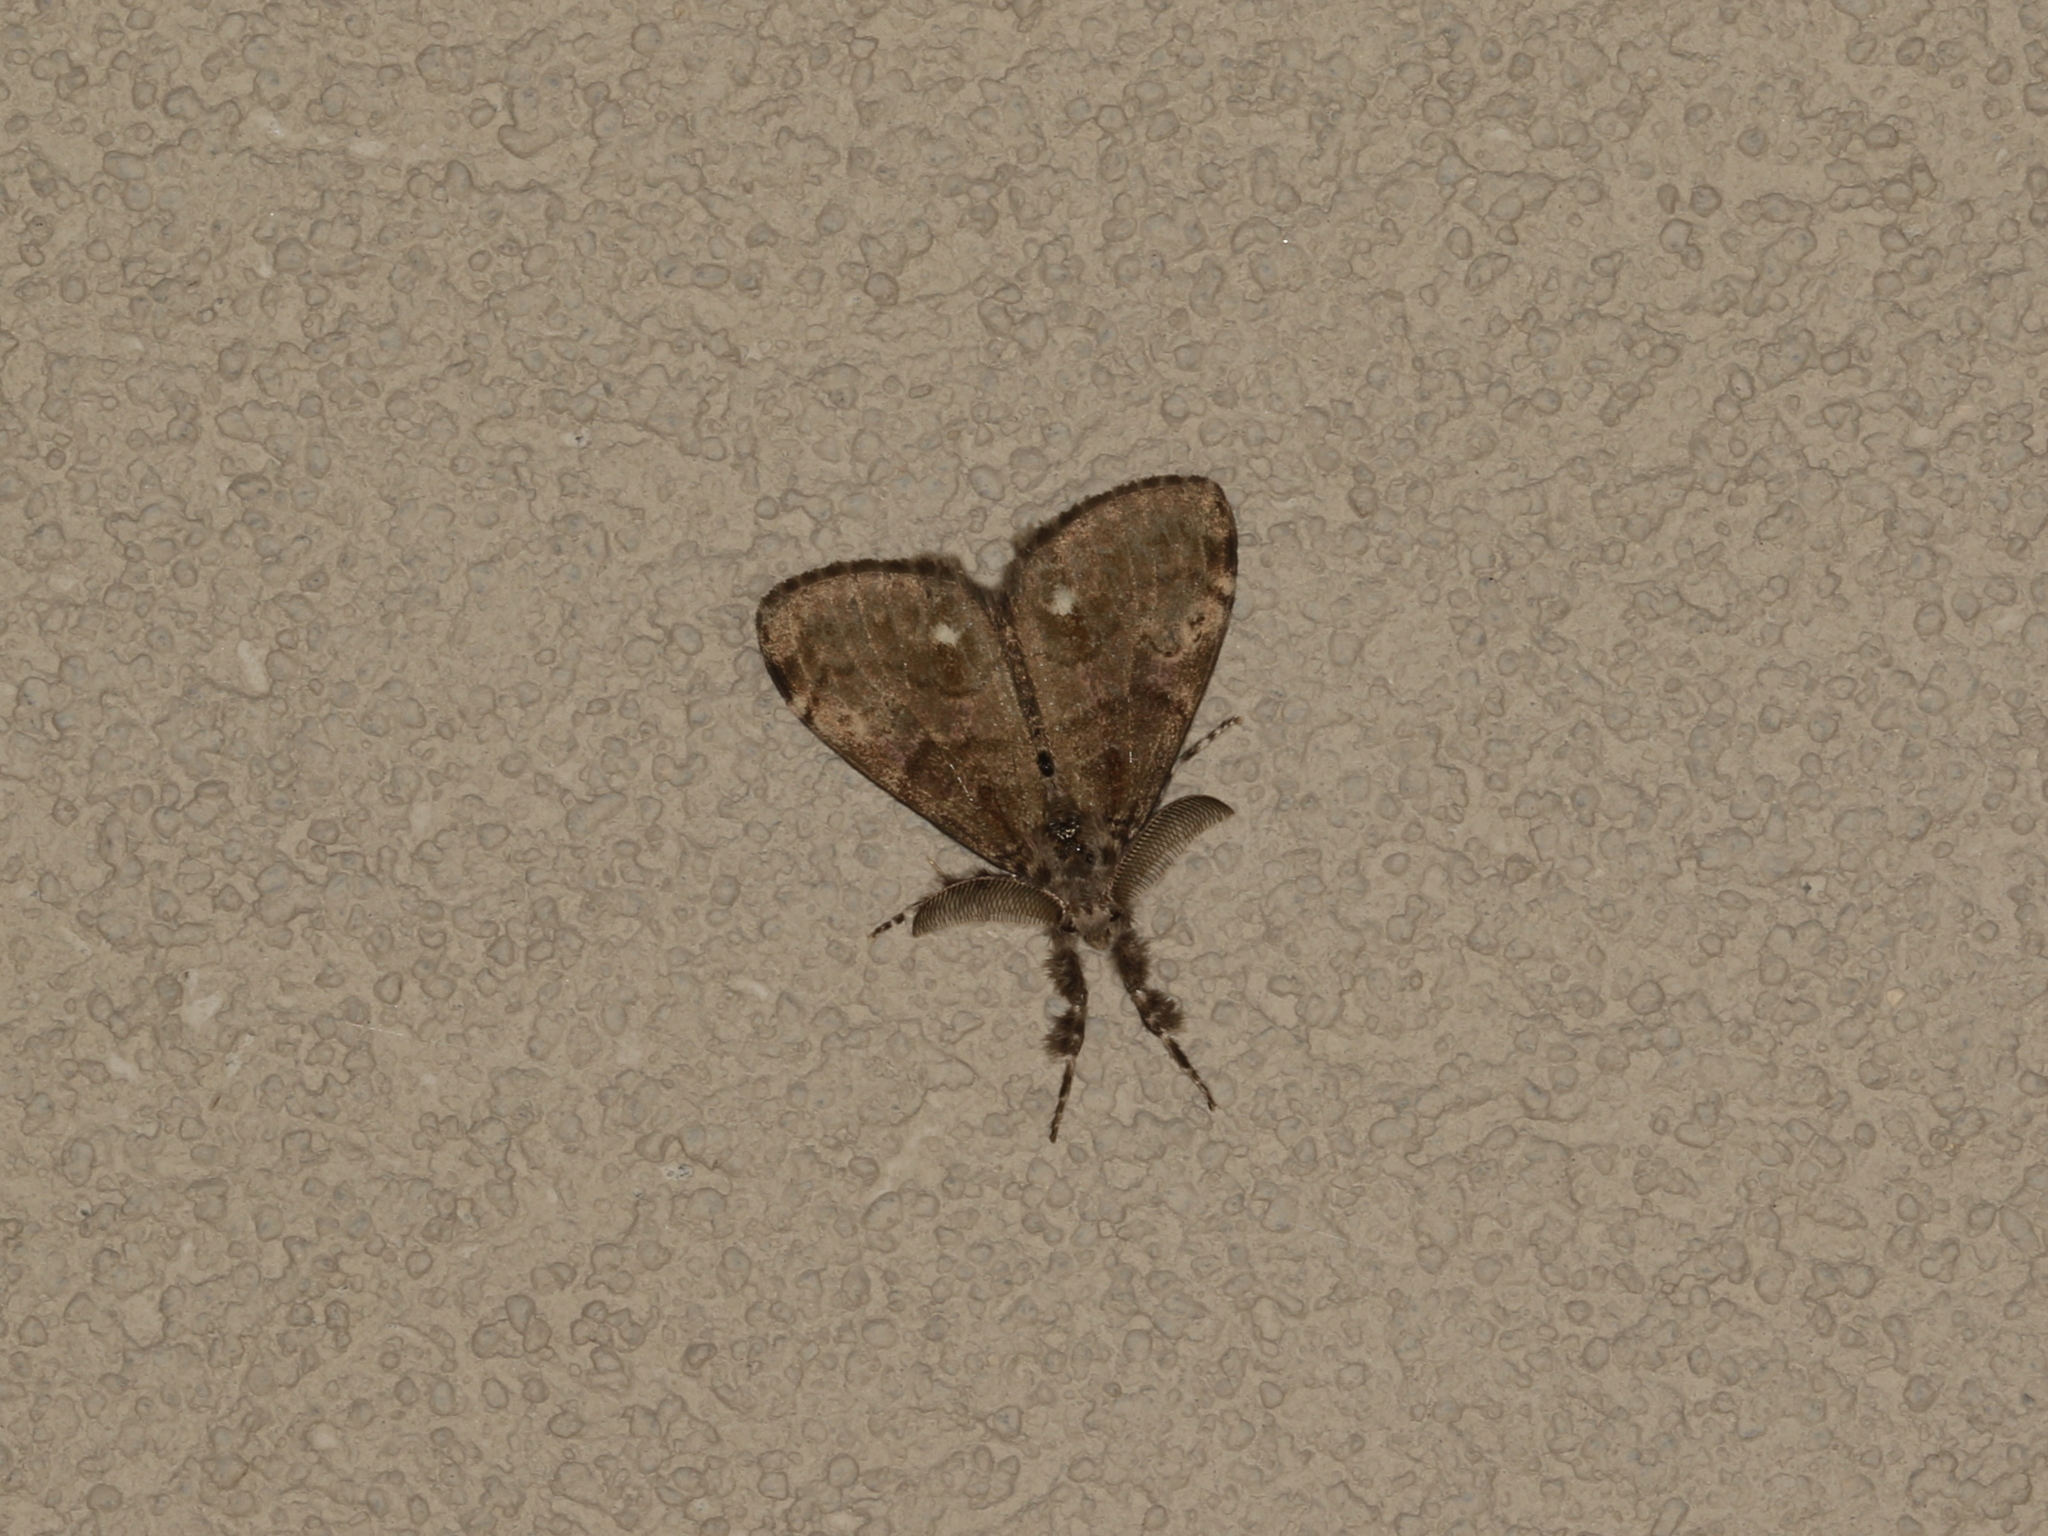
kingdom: Animalia
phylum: Arthropoda
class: Insecta
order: Lepidoptera
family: Erebidae
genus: Orgyia
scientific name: Orgyia leucostigma
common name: White-marked tussock moth
